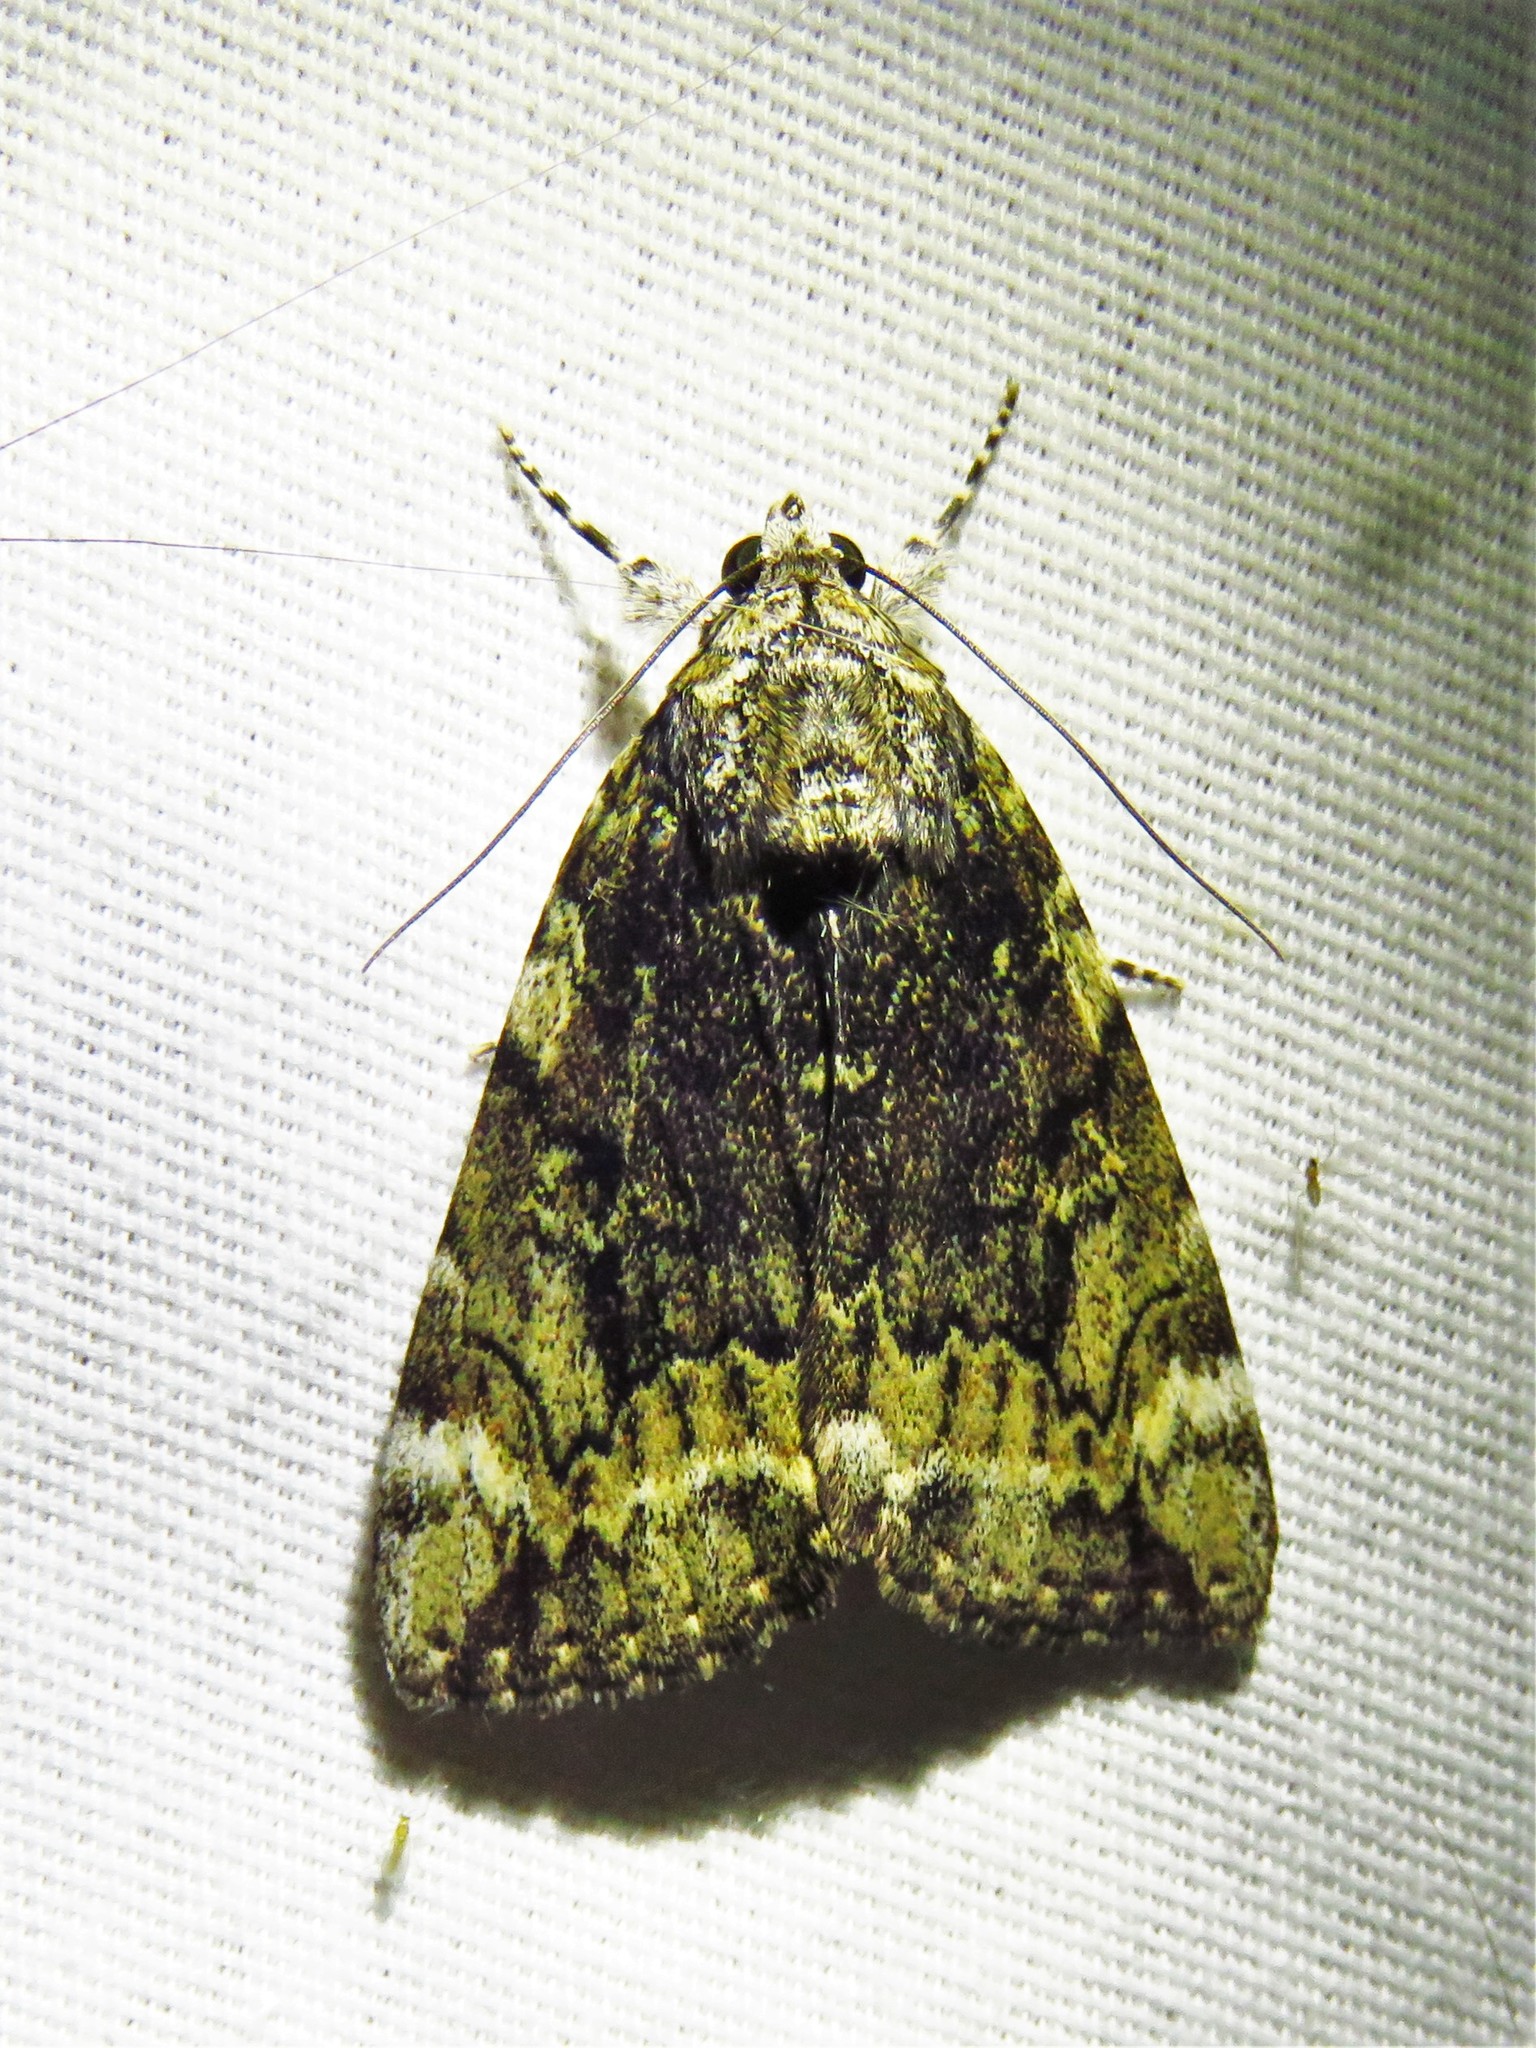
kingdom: Animalia
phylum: Arthropoda
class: Insecta
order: Lepidoptera
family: Erebidae
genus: Catocala
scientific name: Catocala micronympha
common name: Little nymph underwing
